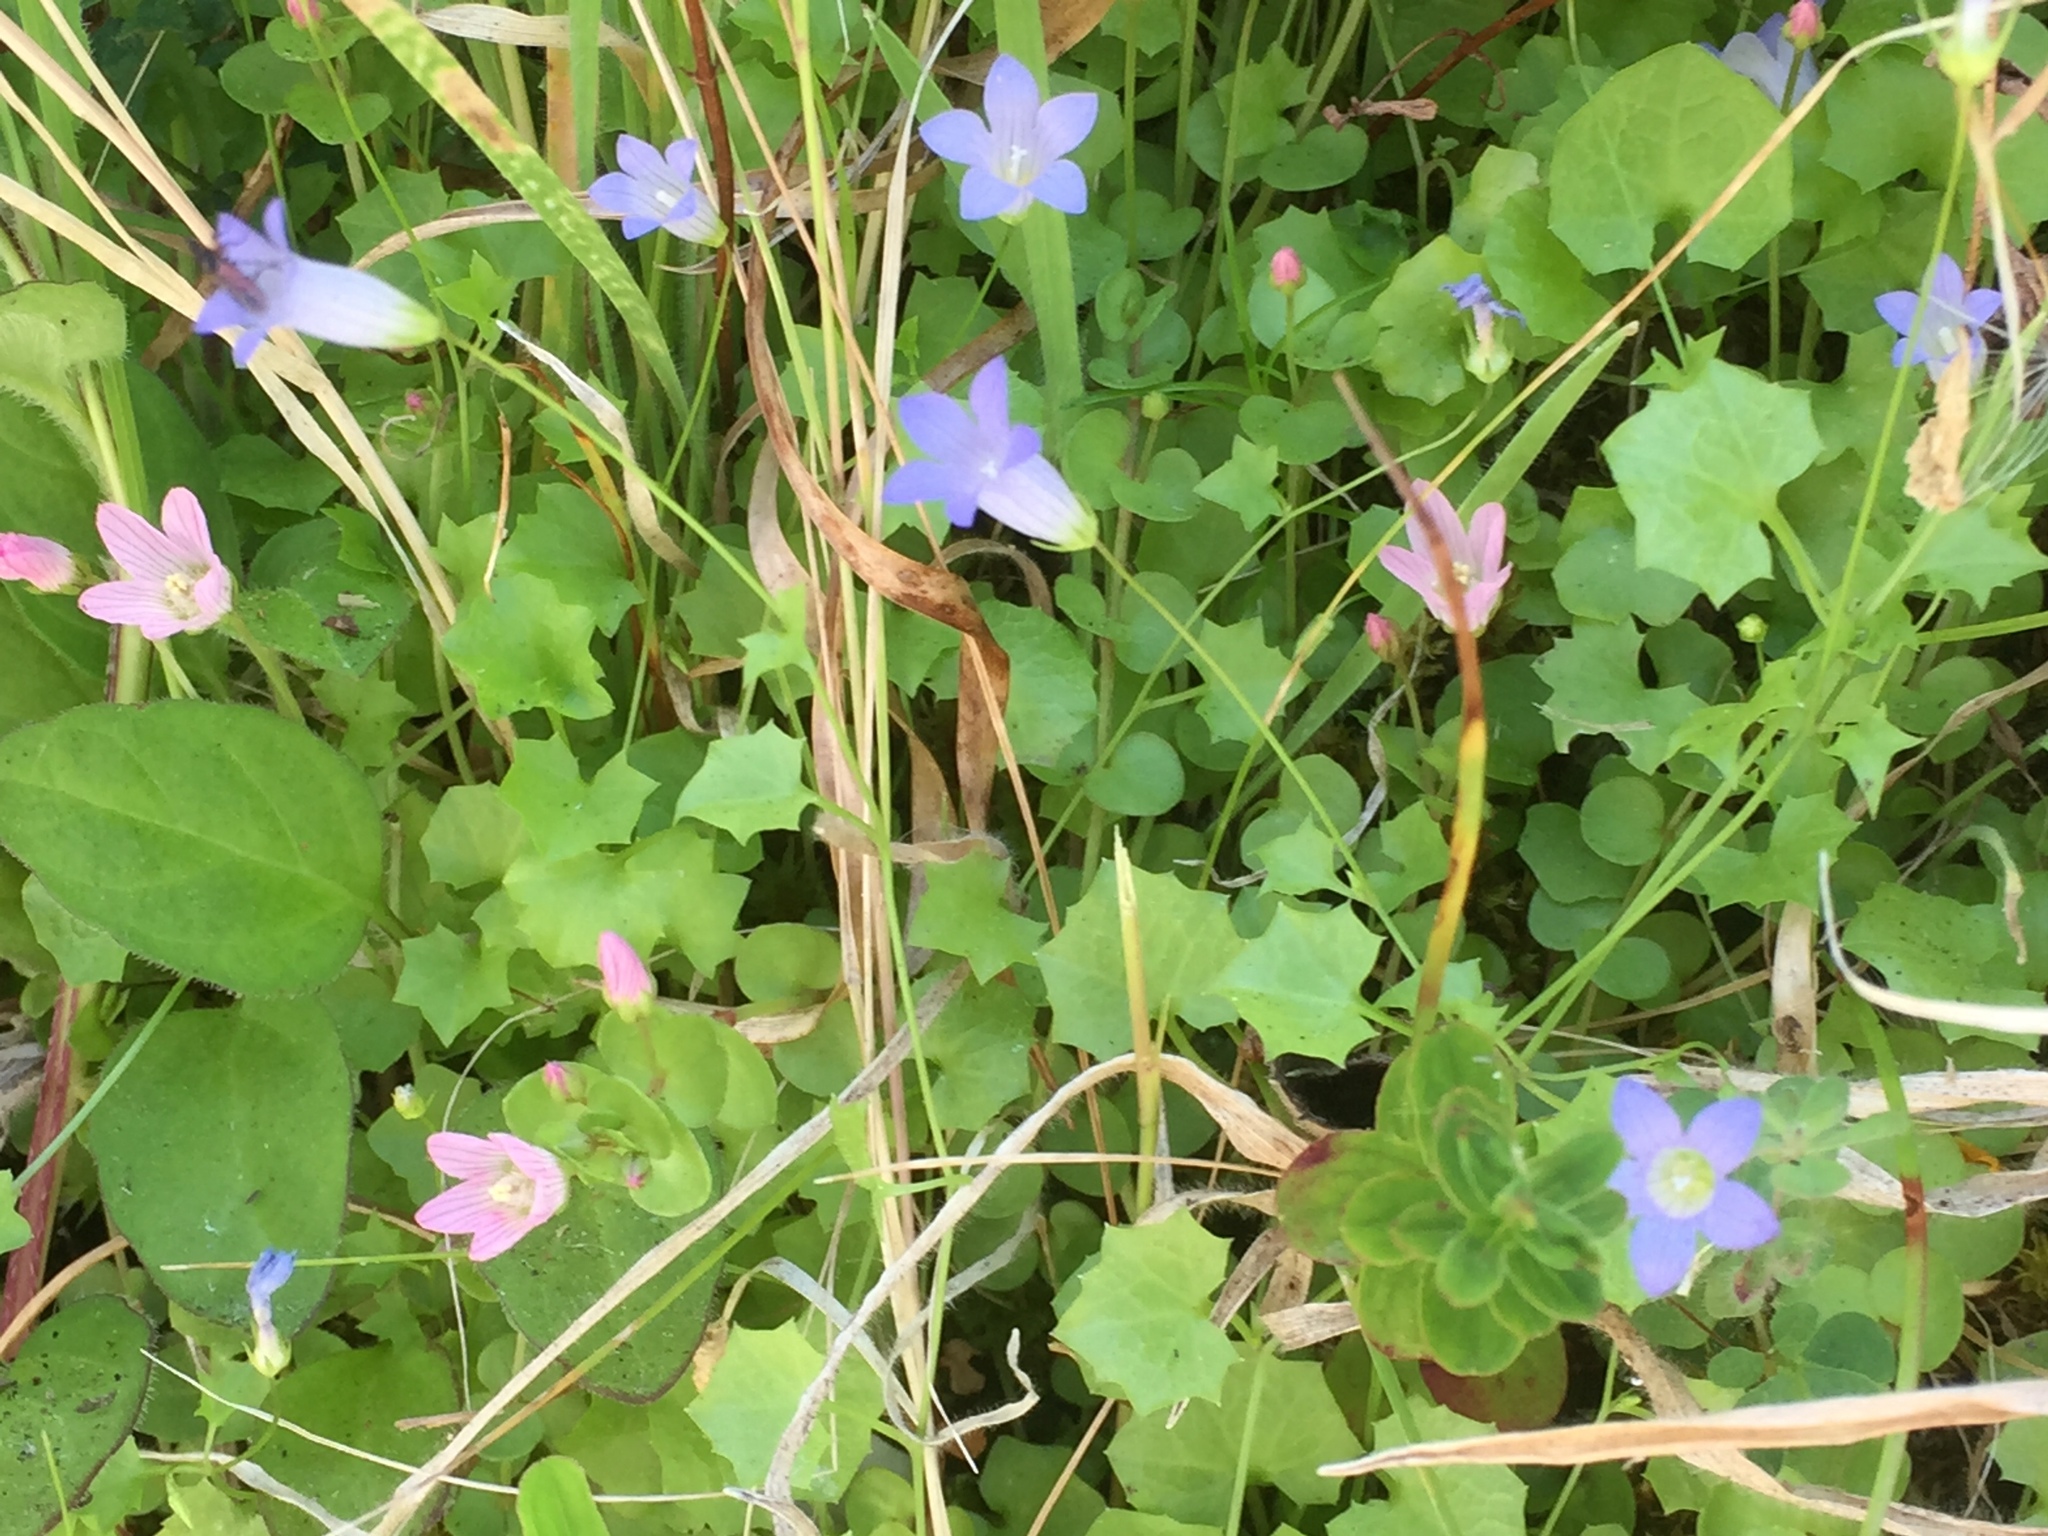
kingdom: Plantae
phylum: Tracheophyta
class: Magnoliopsida
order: Asterales
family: Campanulaceae
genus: Hesperocodon
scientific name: Hesperocodon hederaceus
